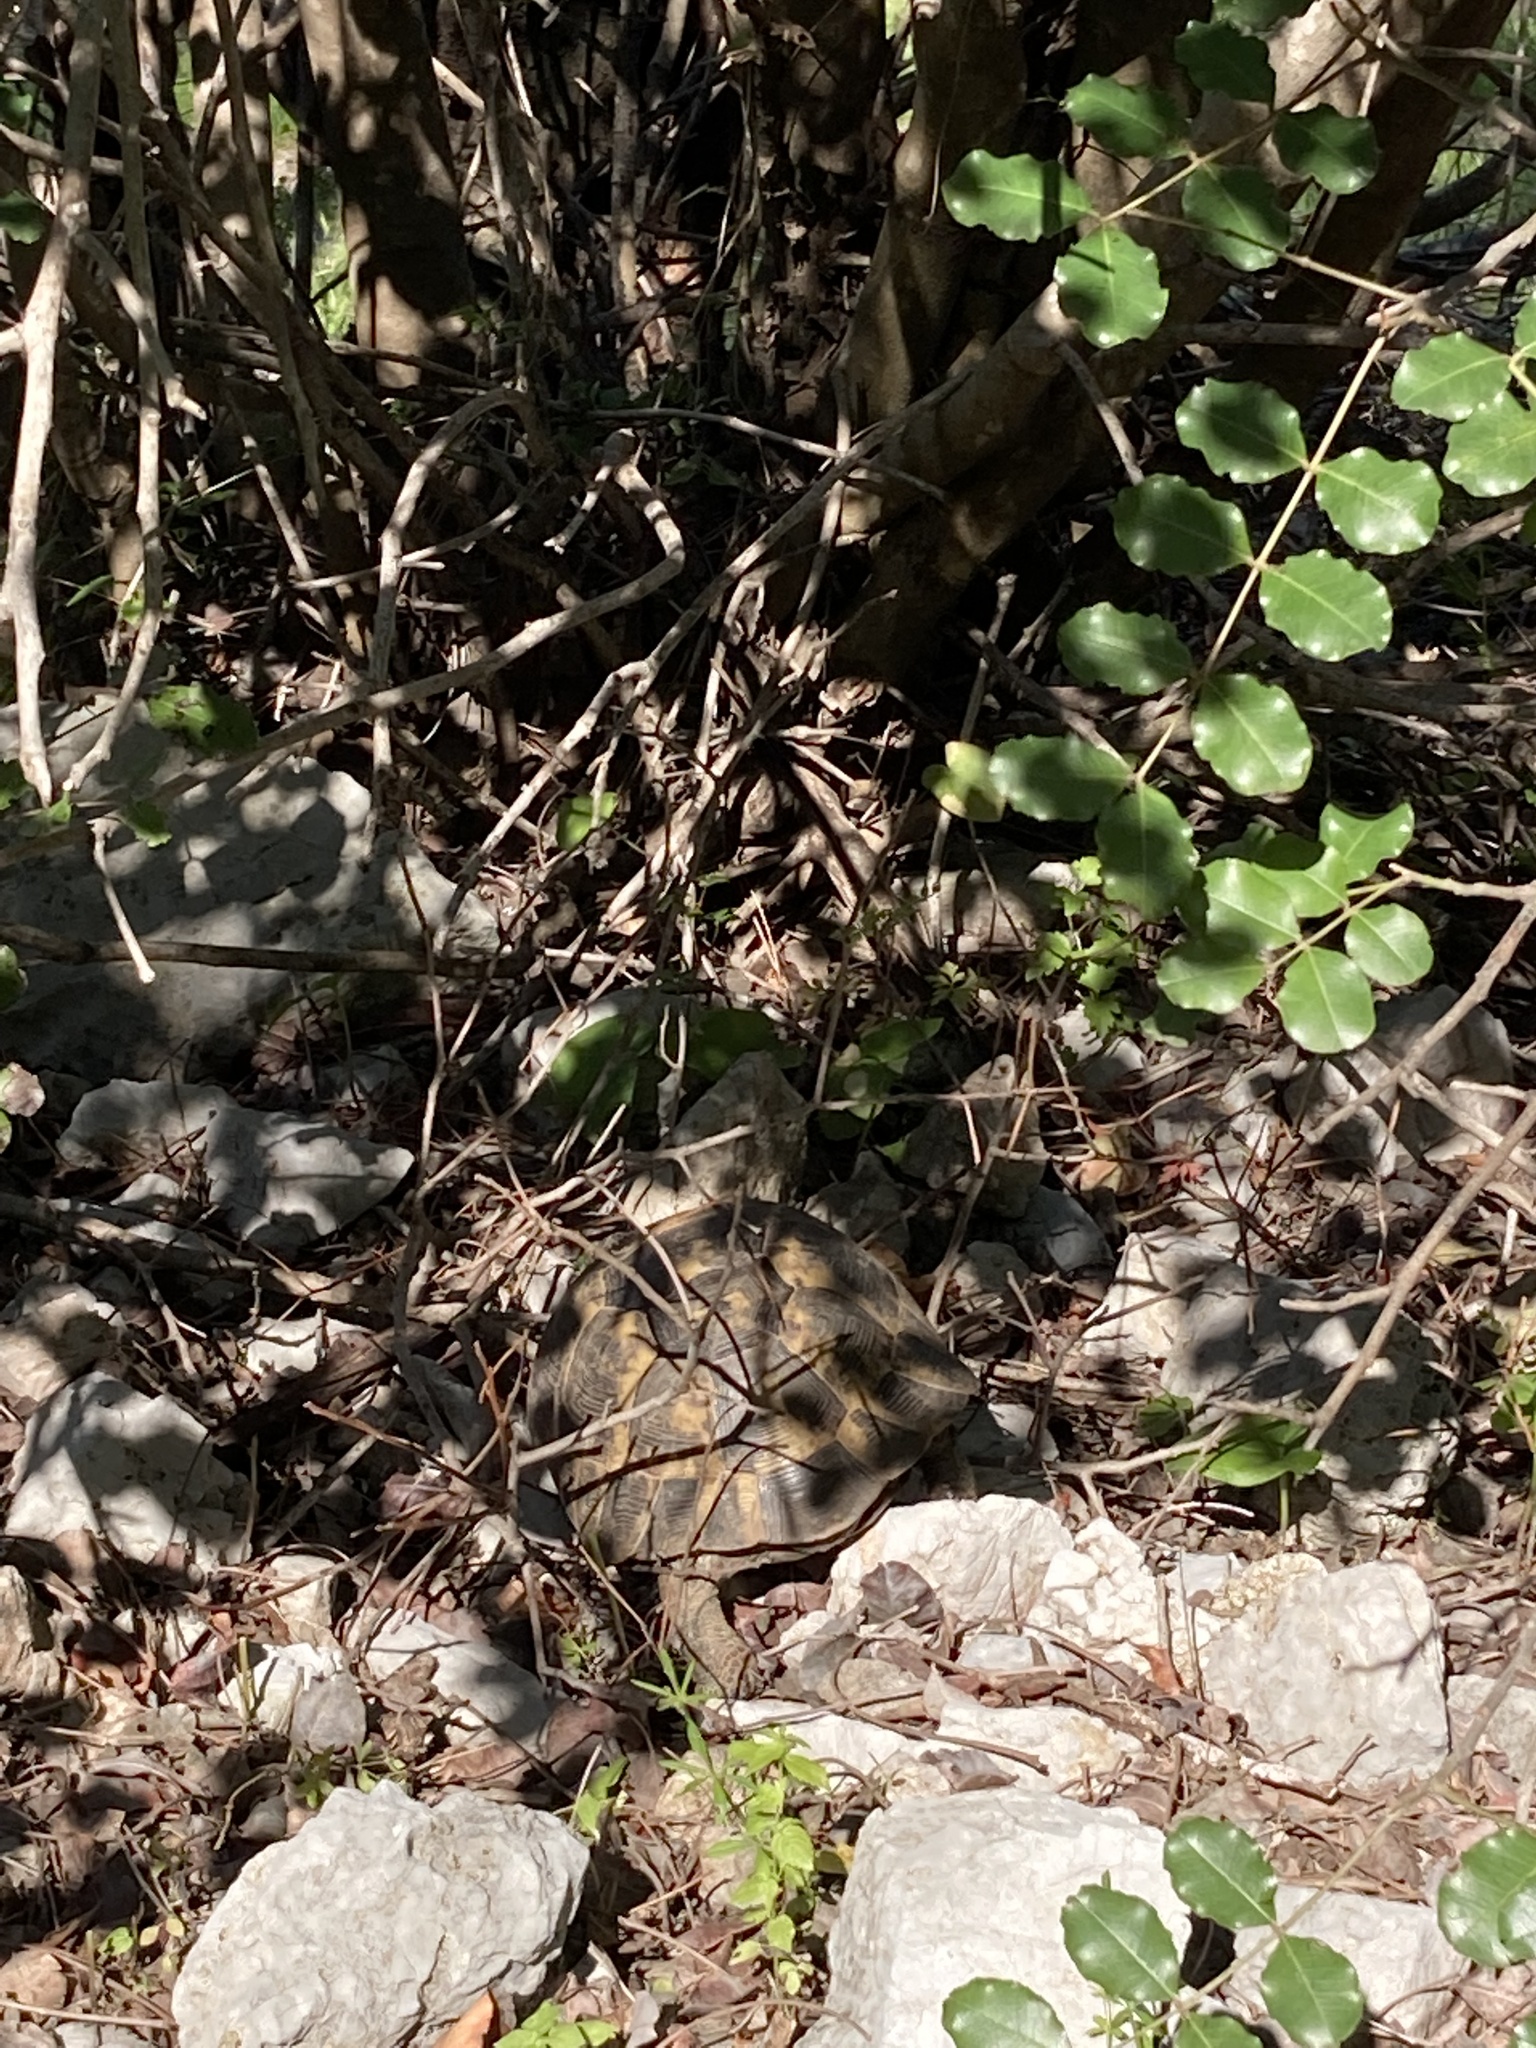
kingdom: Animalia
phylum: Chordata
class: Testudines
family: Testudinidae
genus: Testudo
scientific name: Testudo graeca
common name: Common tortoise
